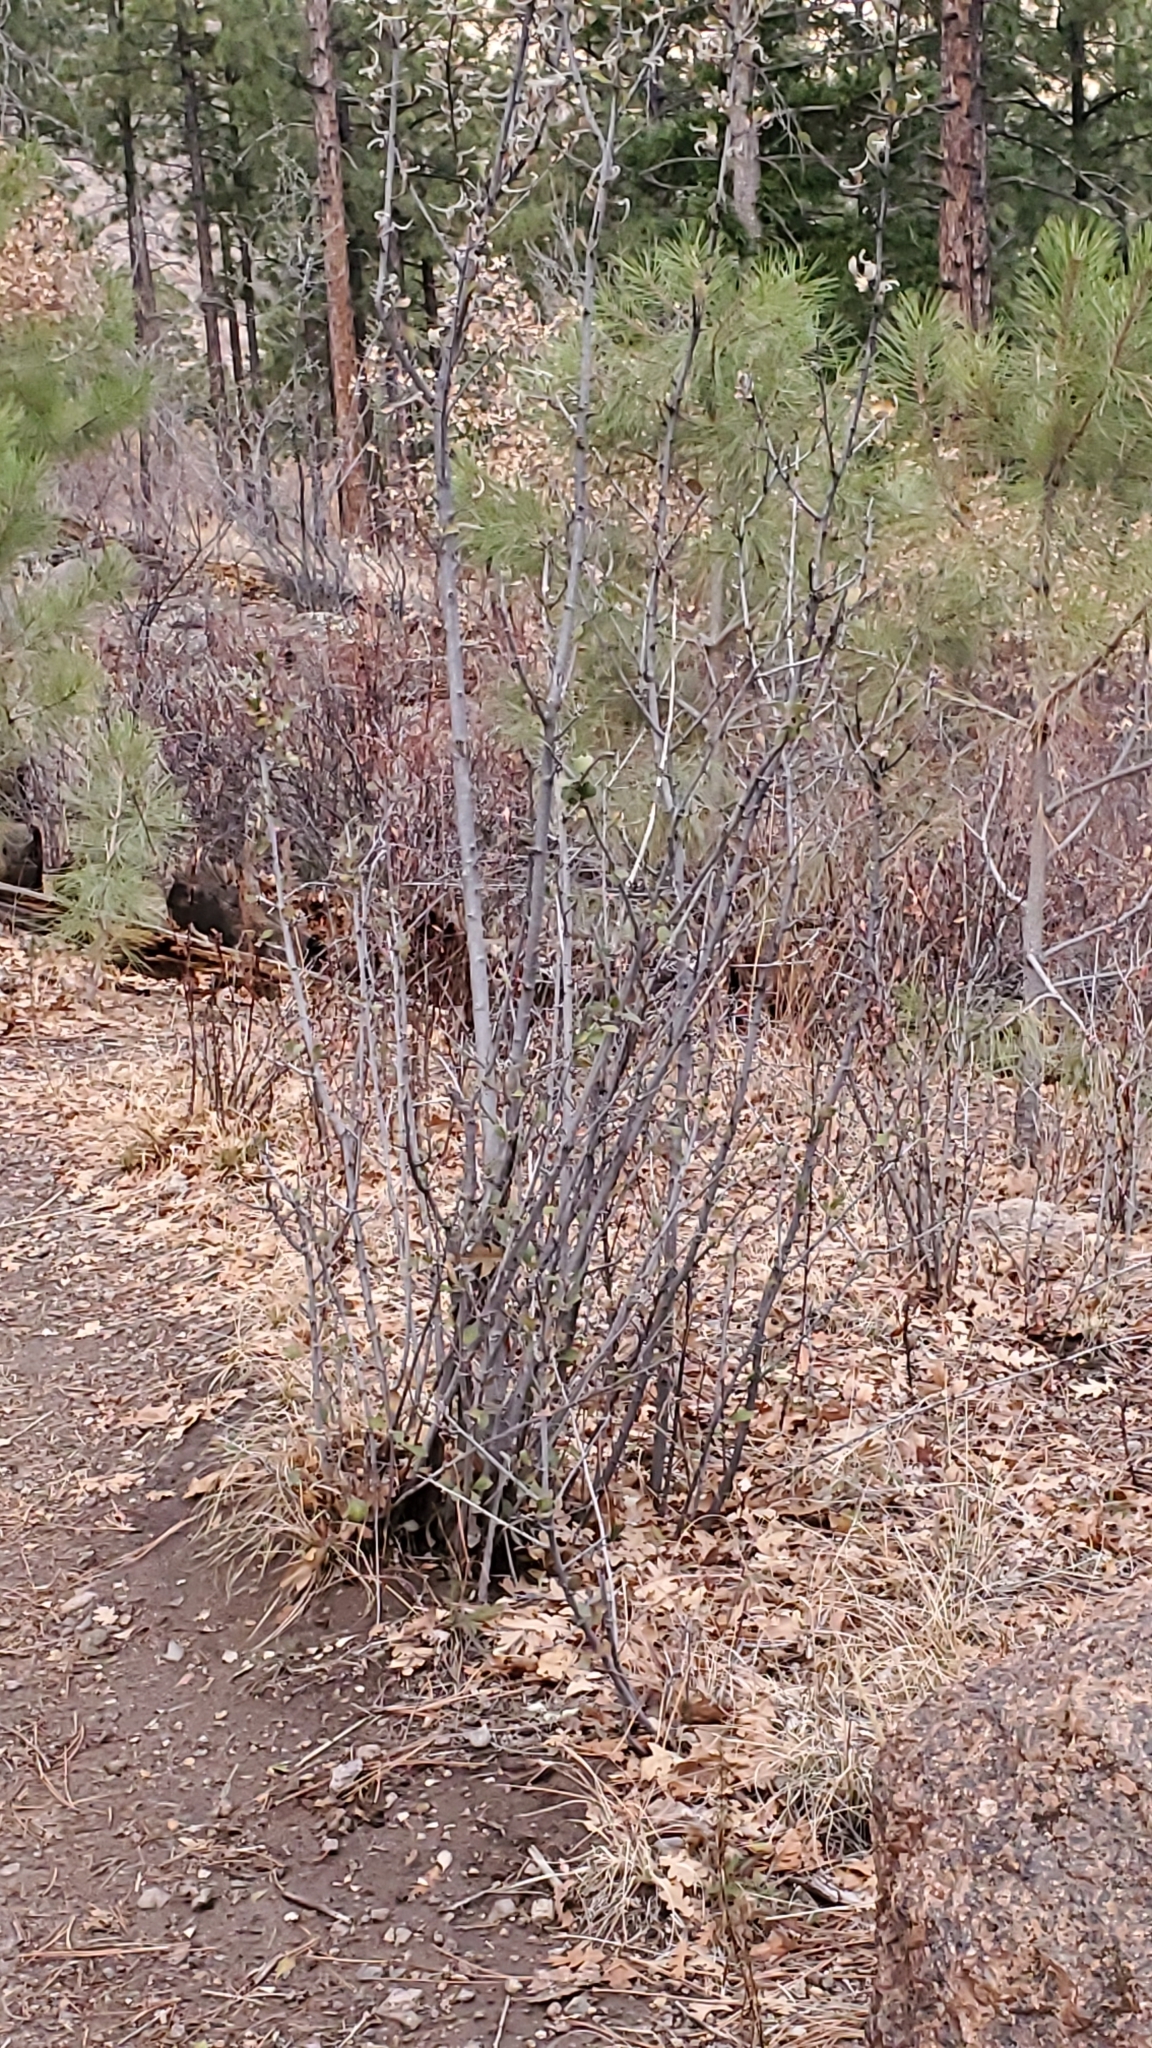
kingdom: Plantae
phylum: Tracheophyta
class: Magnoliopsida
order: Rosales
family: Rosaceae
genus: Cercocarpus
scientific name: Cercocarpus montanus
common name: Alder-leaf cercocarpus
